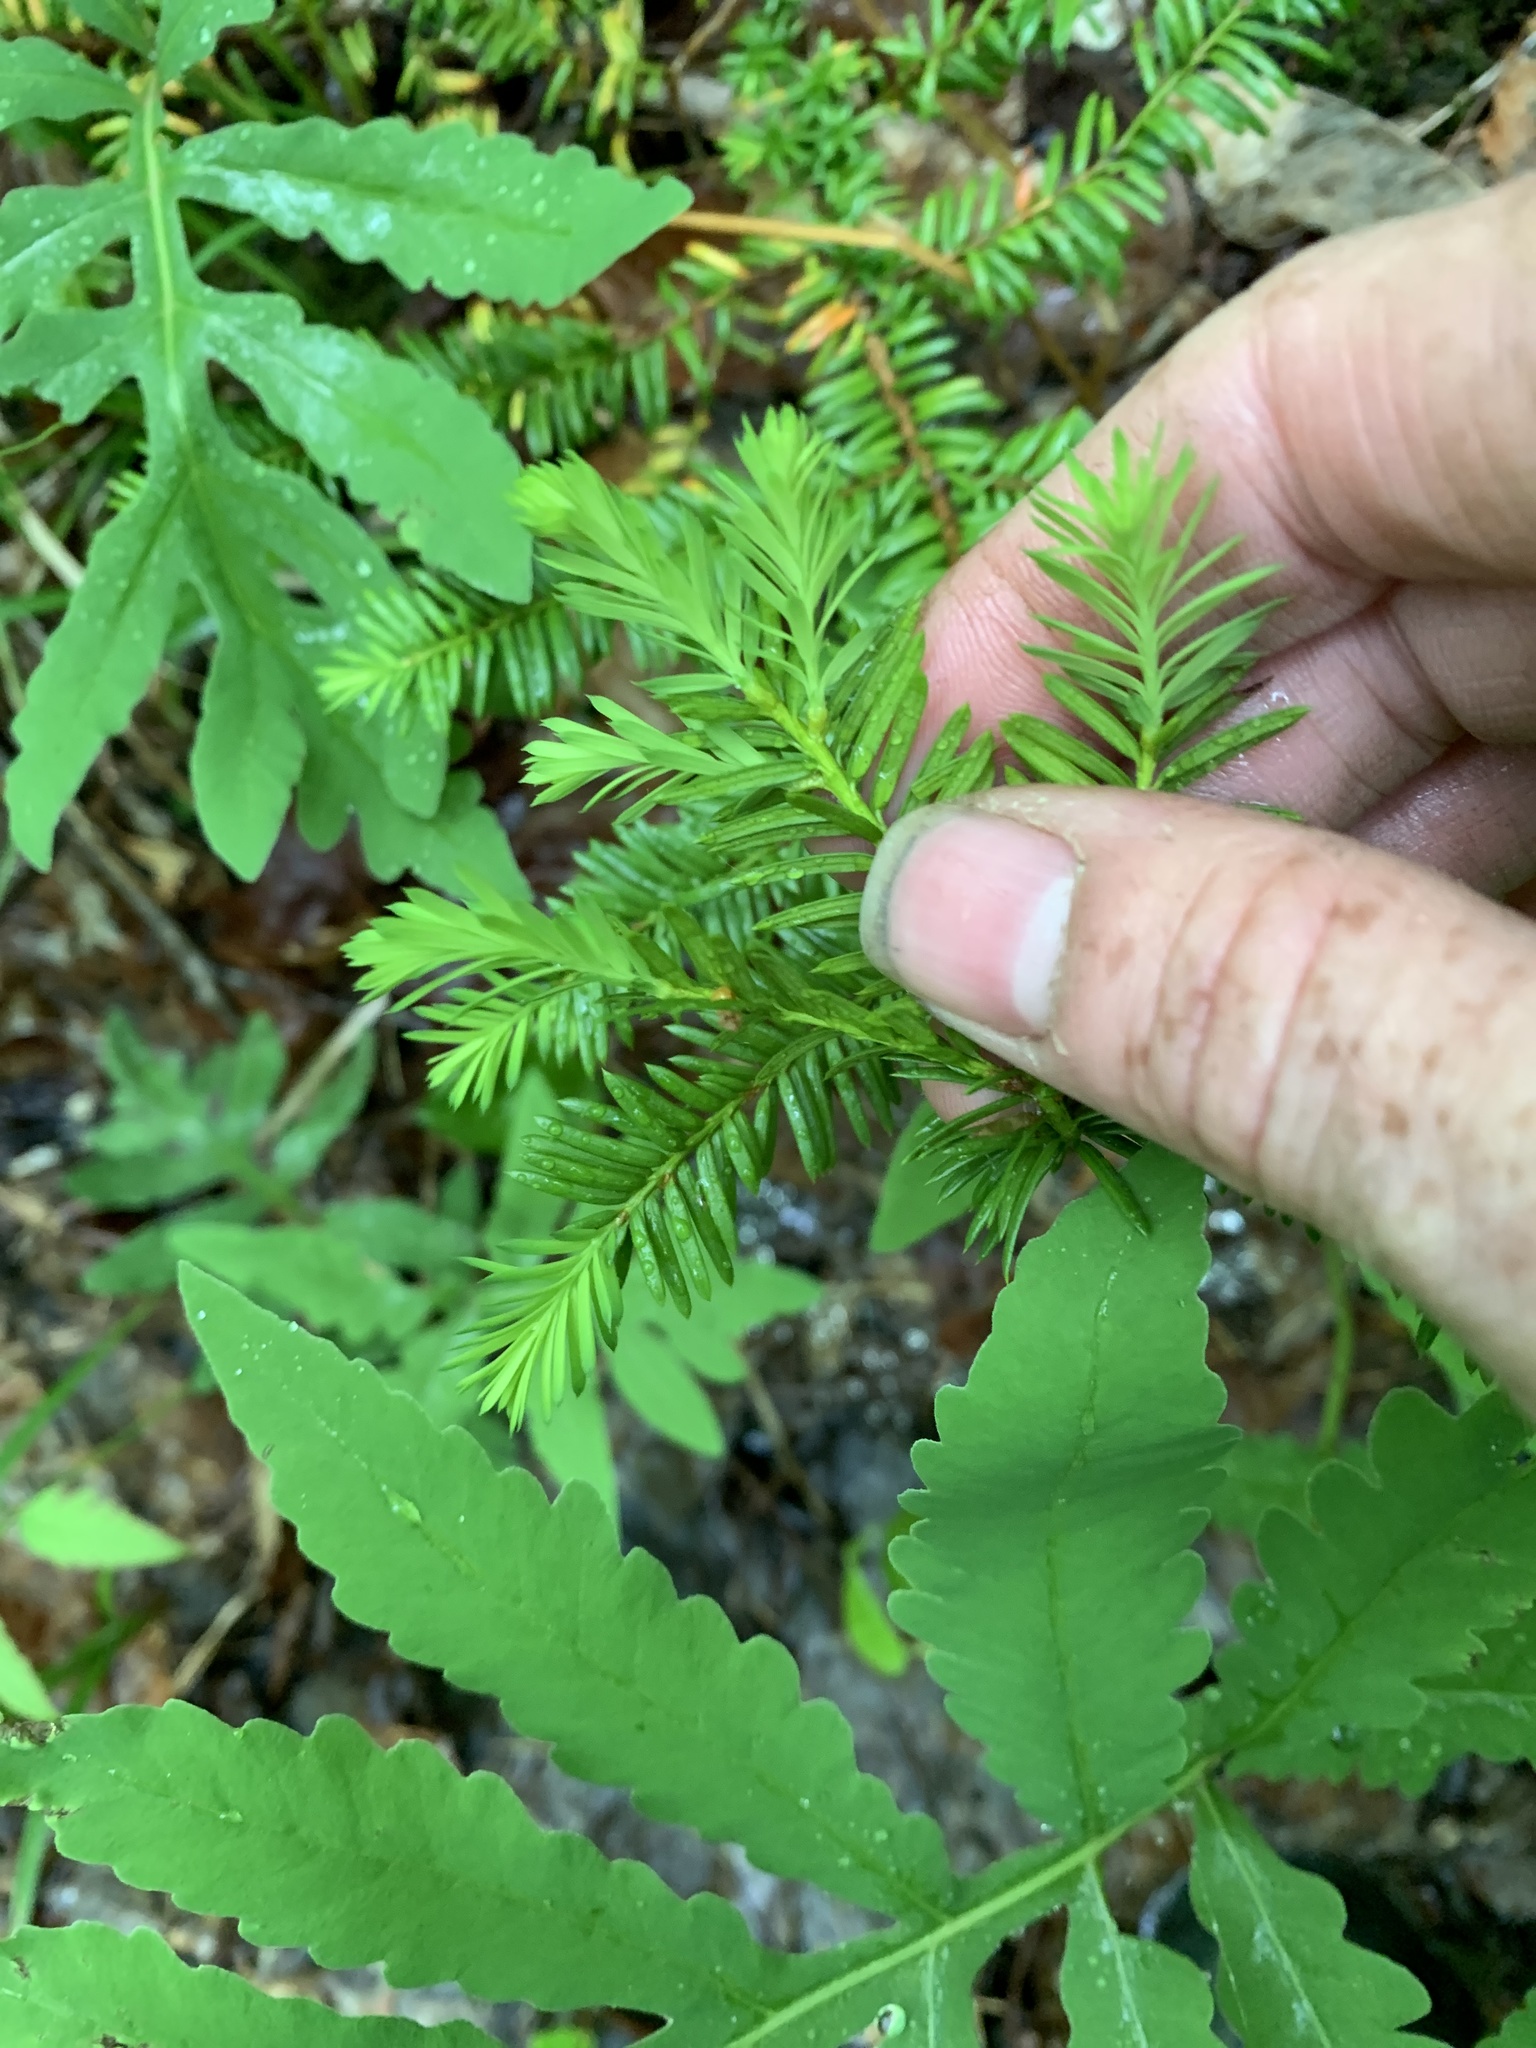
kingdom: Plantae
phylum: Tracheophyta
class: Pinopsida
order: Pinales
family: Taxaceae
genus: Taxus
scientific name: Taxus canadensis
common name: American yew
